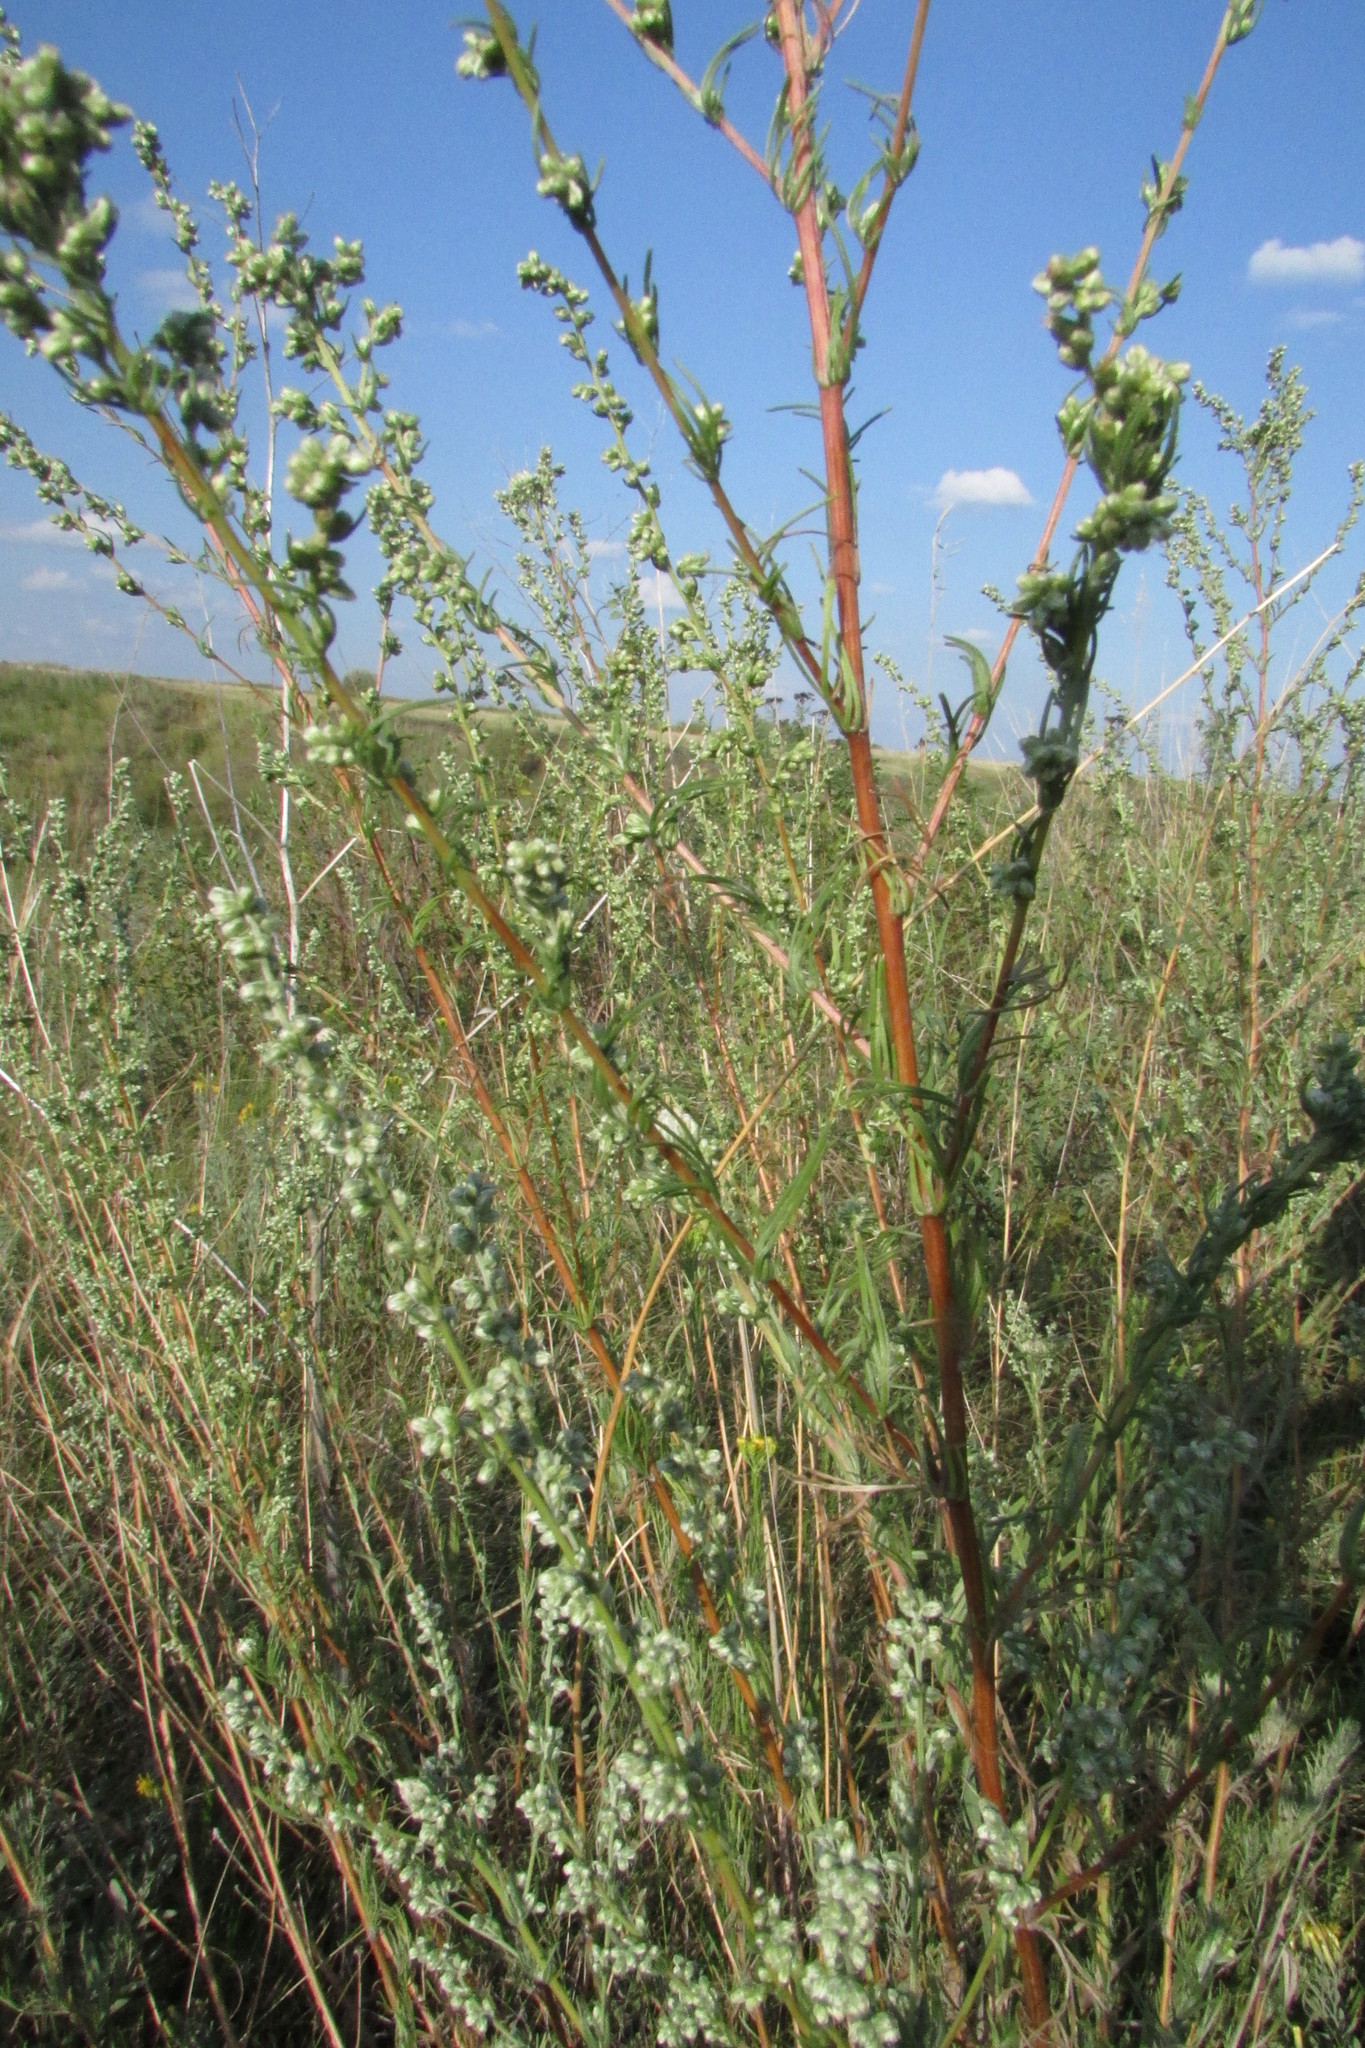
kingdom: Plantae
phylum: Tracheophyta
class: Magnoliopsida
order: Asterales
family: Asteraceae
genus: Artemisia
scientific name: Artemisia campestris
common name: Field wormwood
